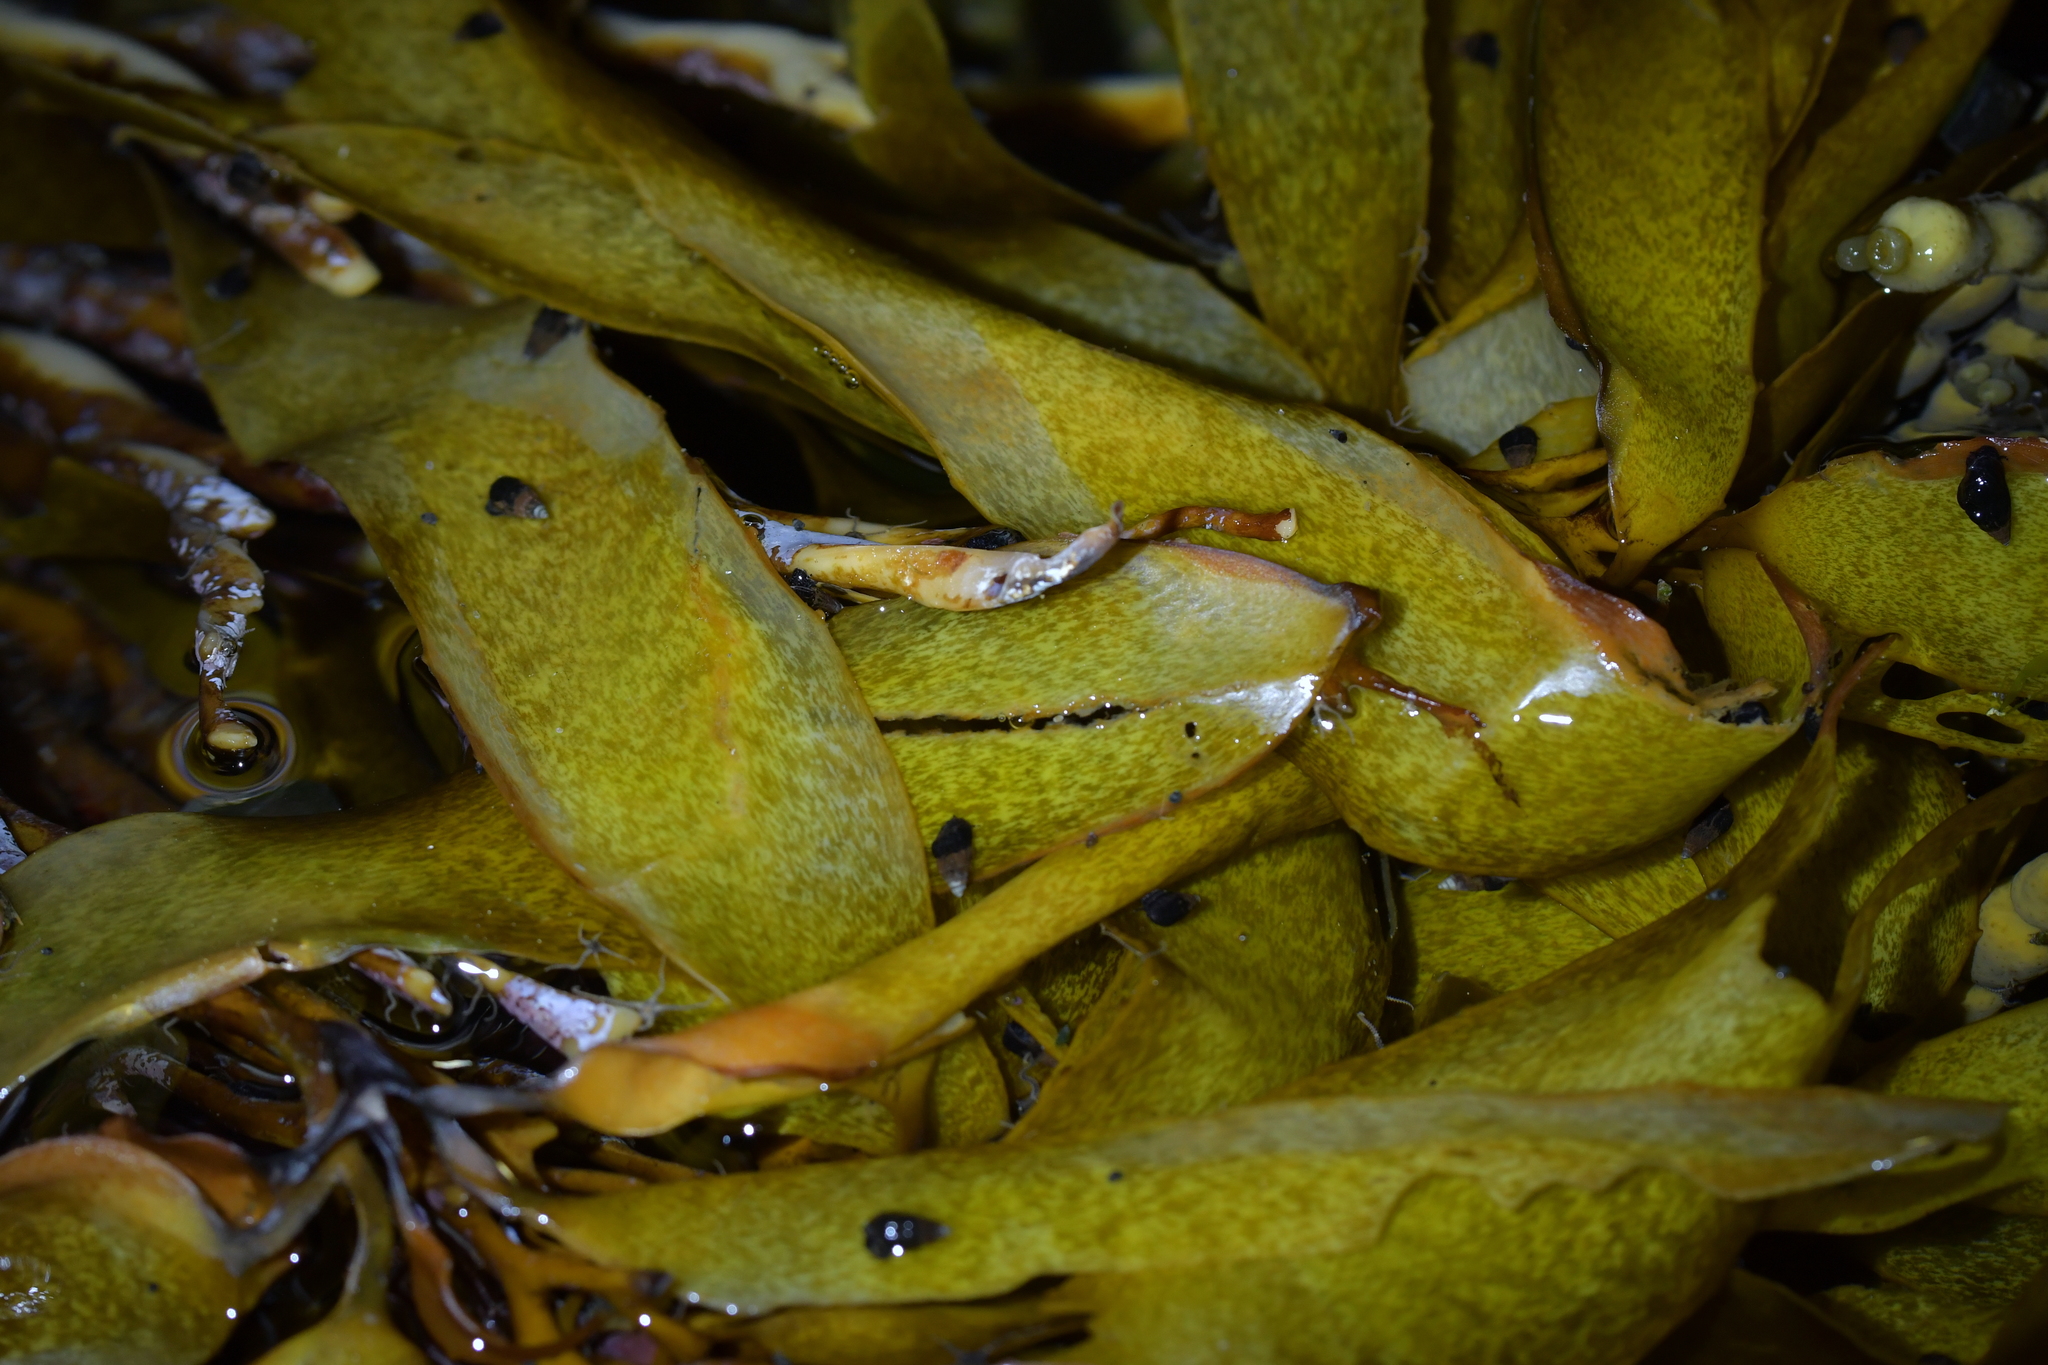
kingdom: Chromista
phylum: Ochrophyta
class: Phaeophyceae
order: Laminariales
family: Lessoniaceae
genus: Lessonia
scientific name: Lessonia variegata
